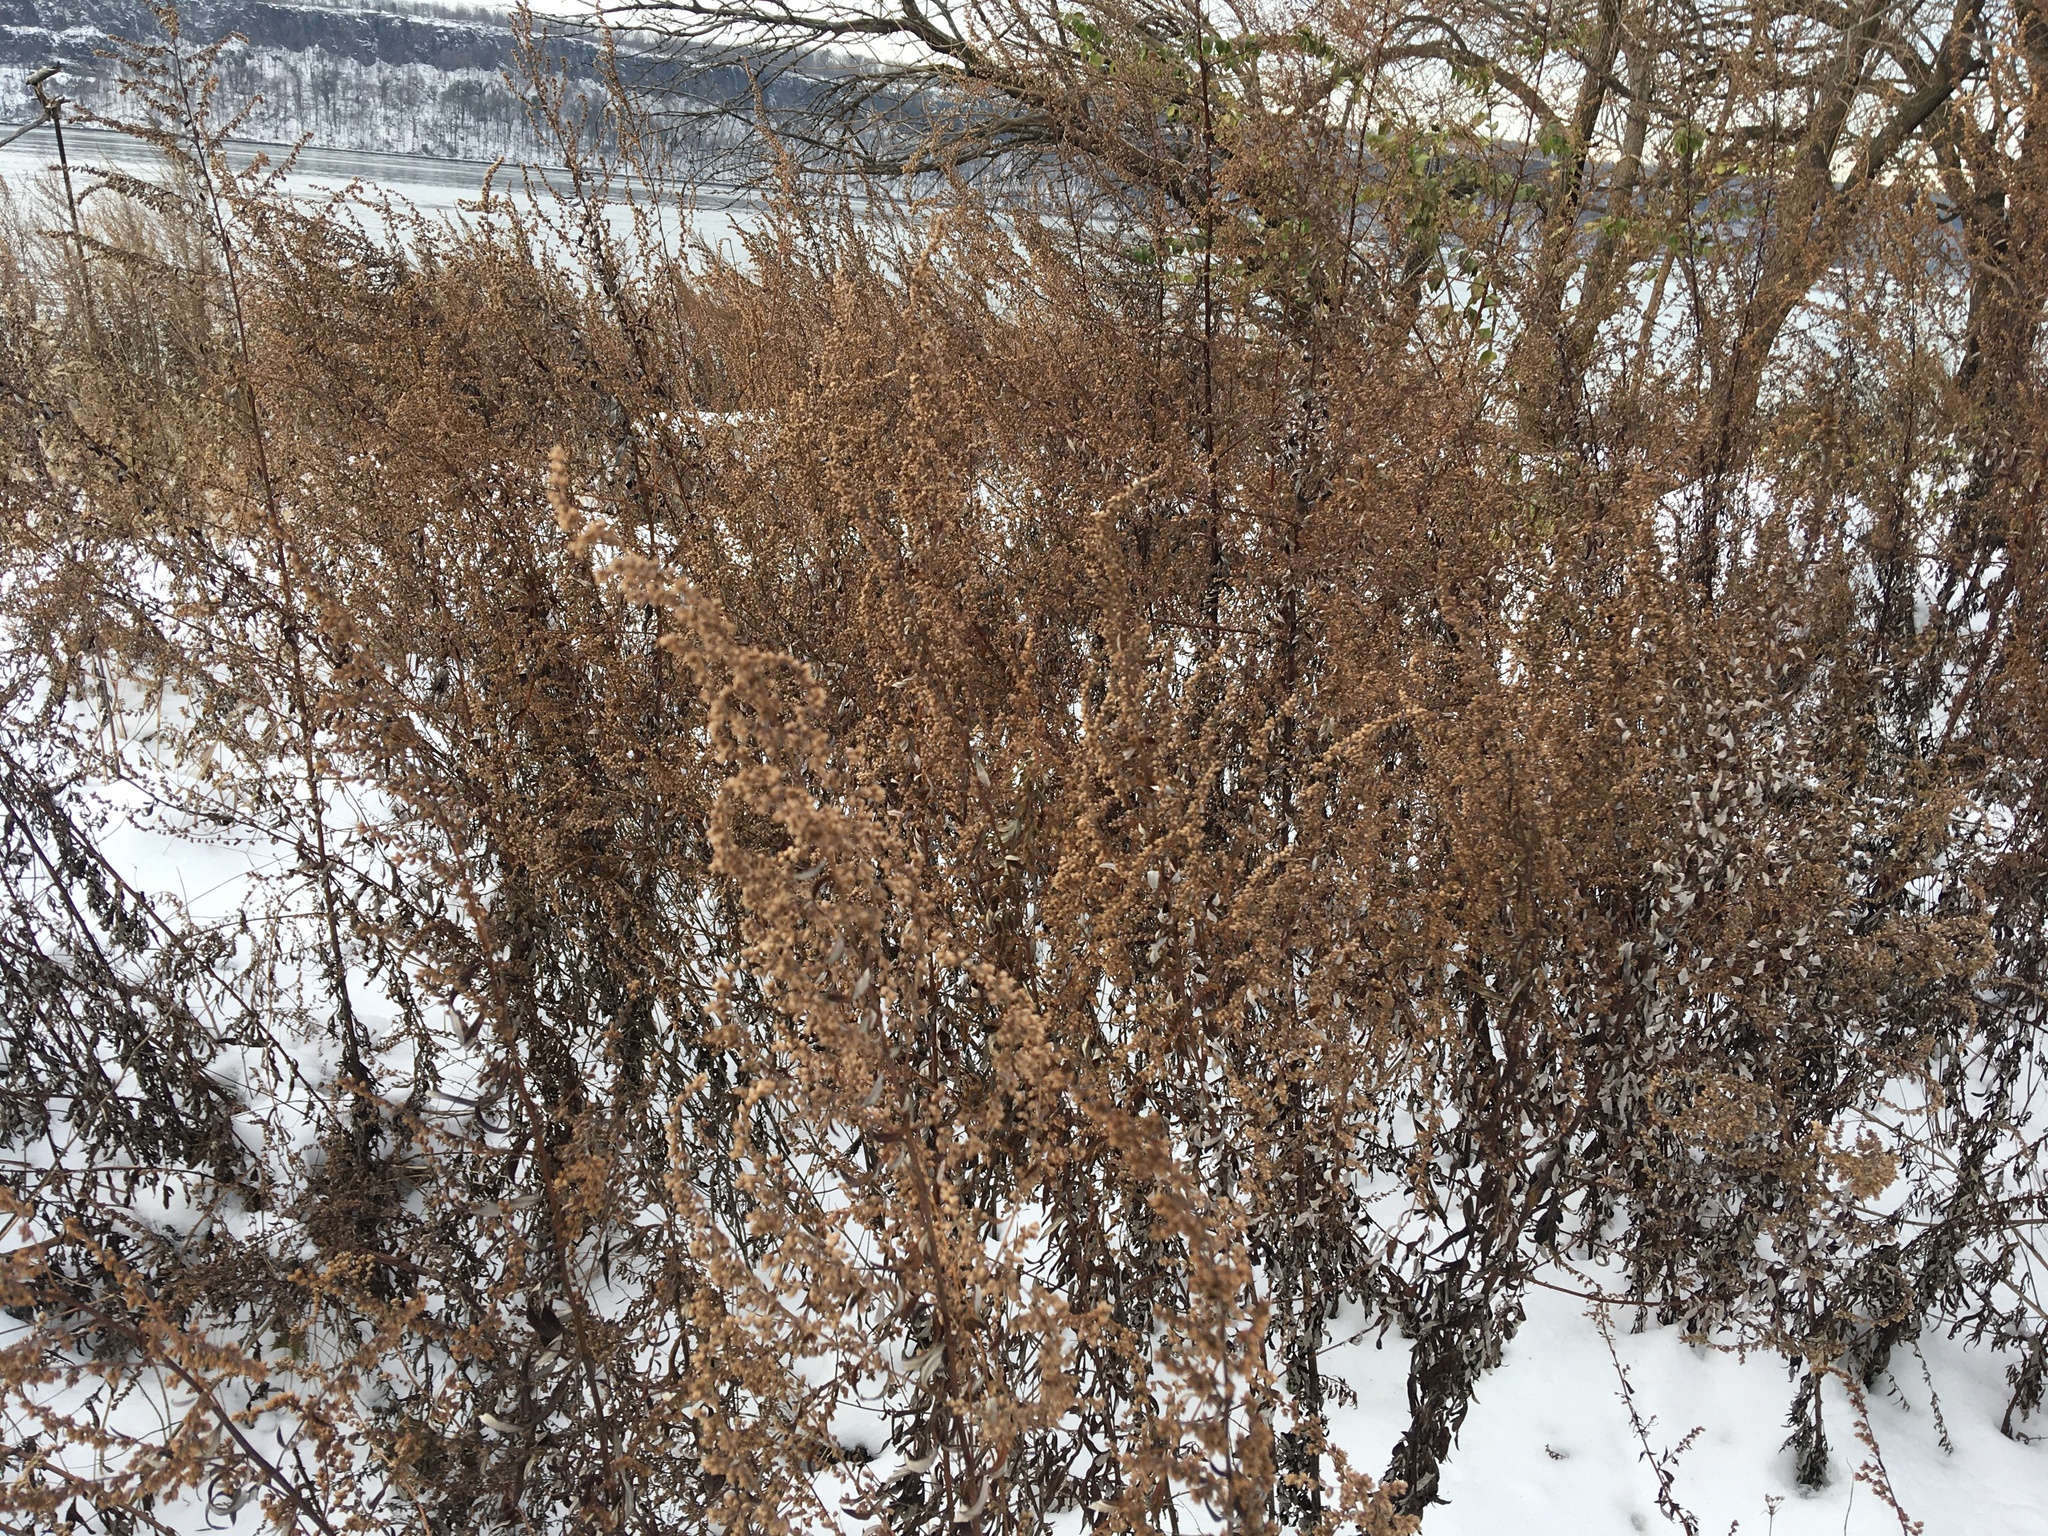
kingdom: Plantae
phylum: Tracheophyta
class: Magnoliopsida
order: Asterales
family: Asteraceae
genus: Artemisia
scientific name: Artemisia vulgaris
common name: Mugwort
